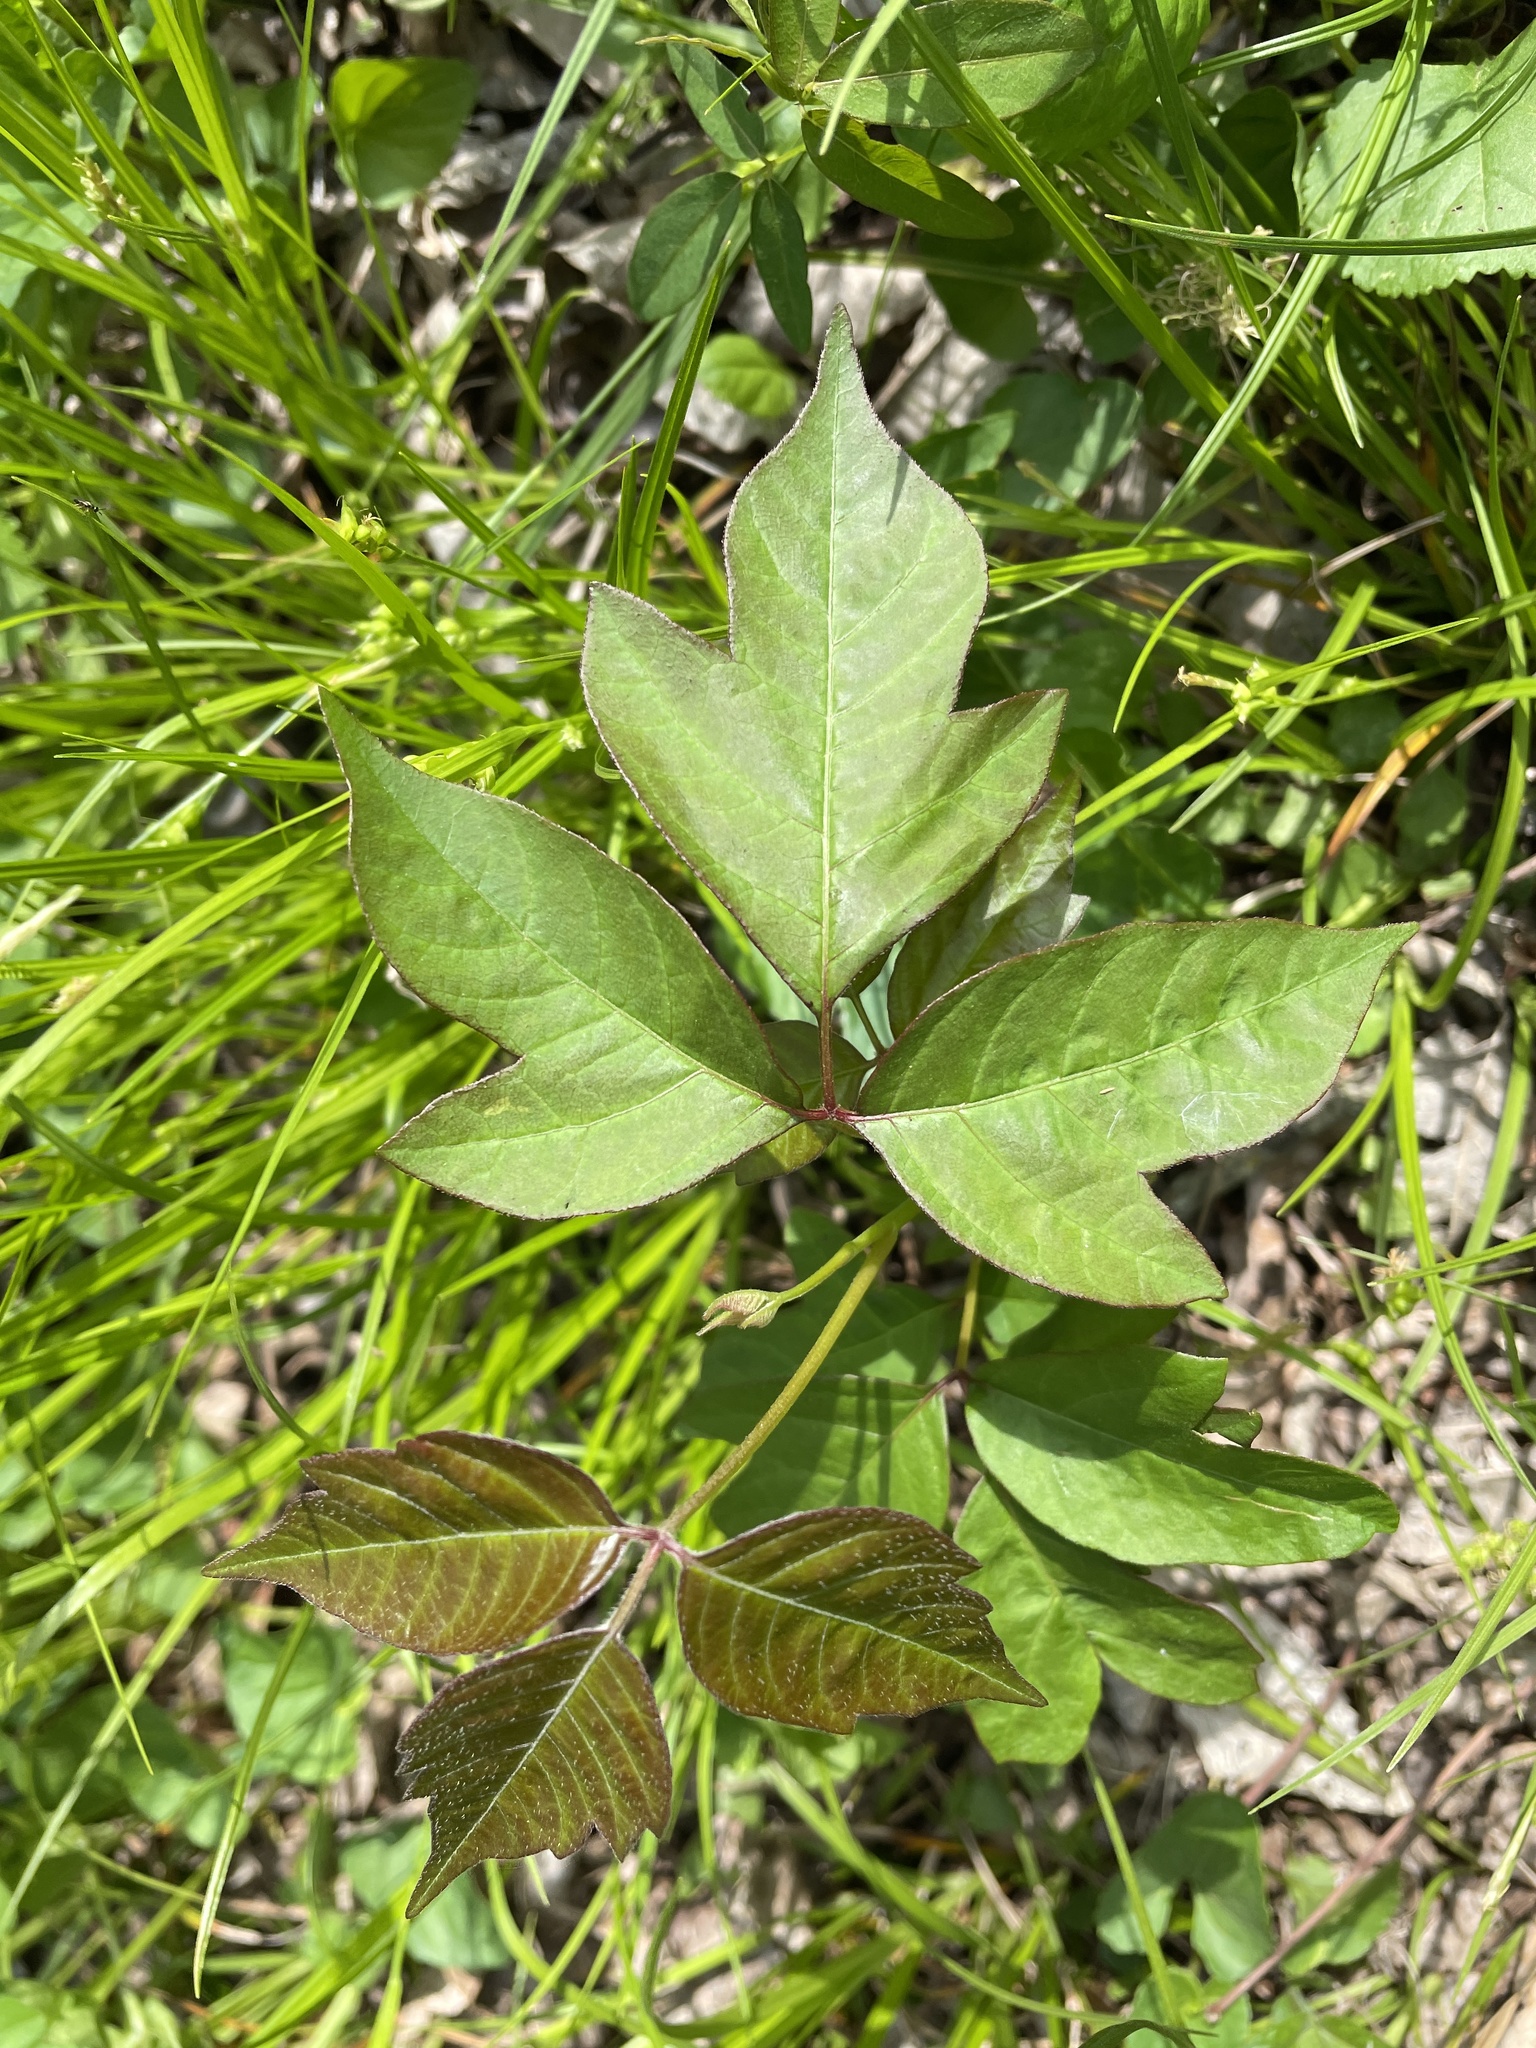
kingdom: Plantae
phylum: Tracheophyta
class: Magnoliopsida
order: Sapindales
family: Anacardiaceae
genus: Toxicodendron
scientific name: Toxicodendron radicans
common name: Poison ivy
